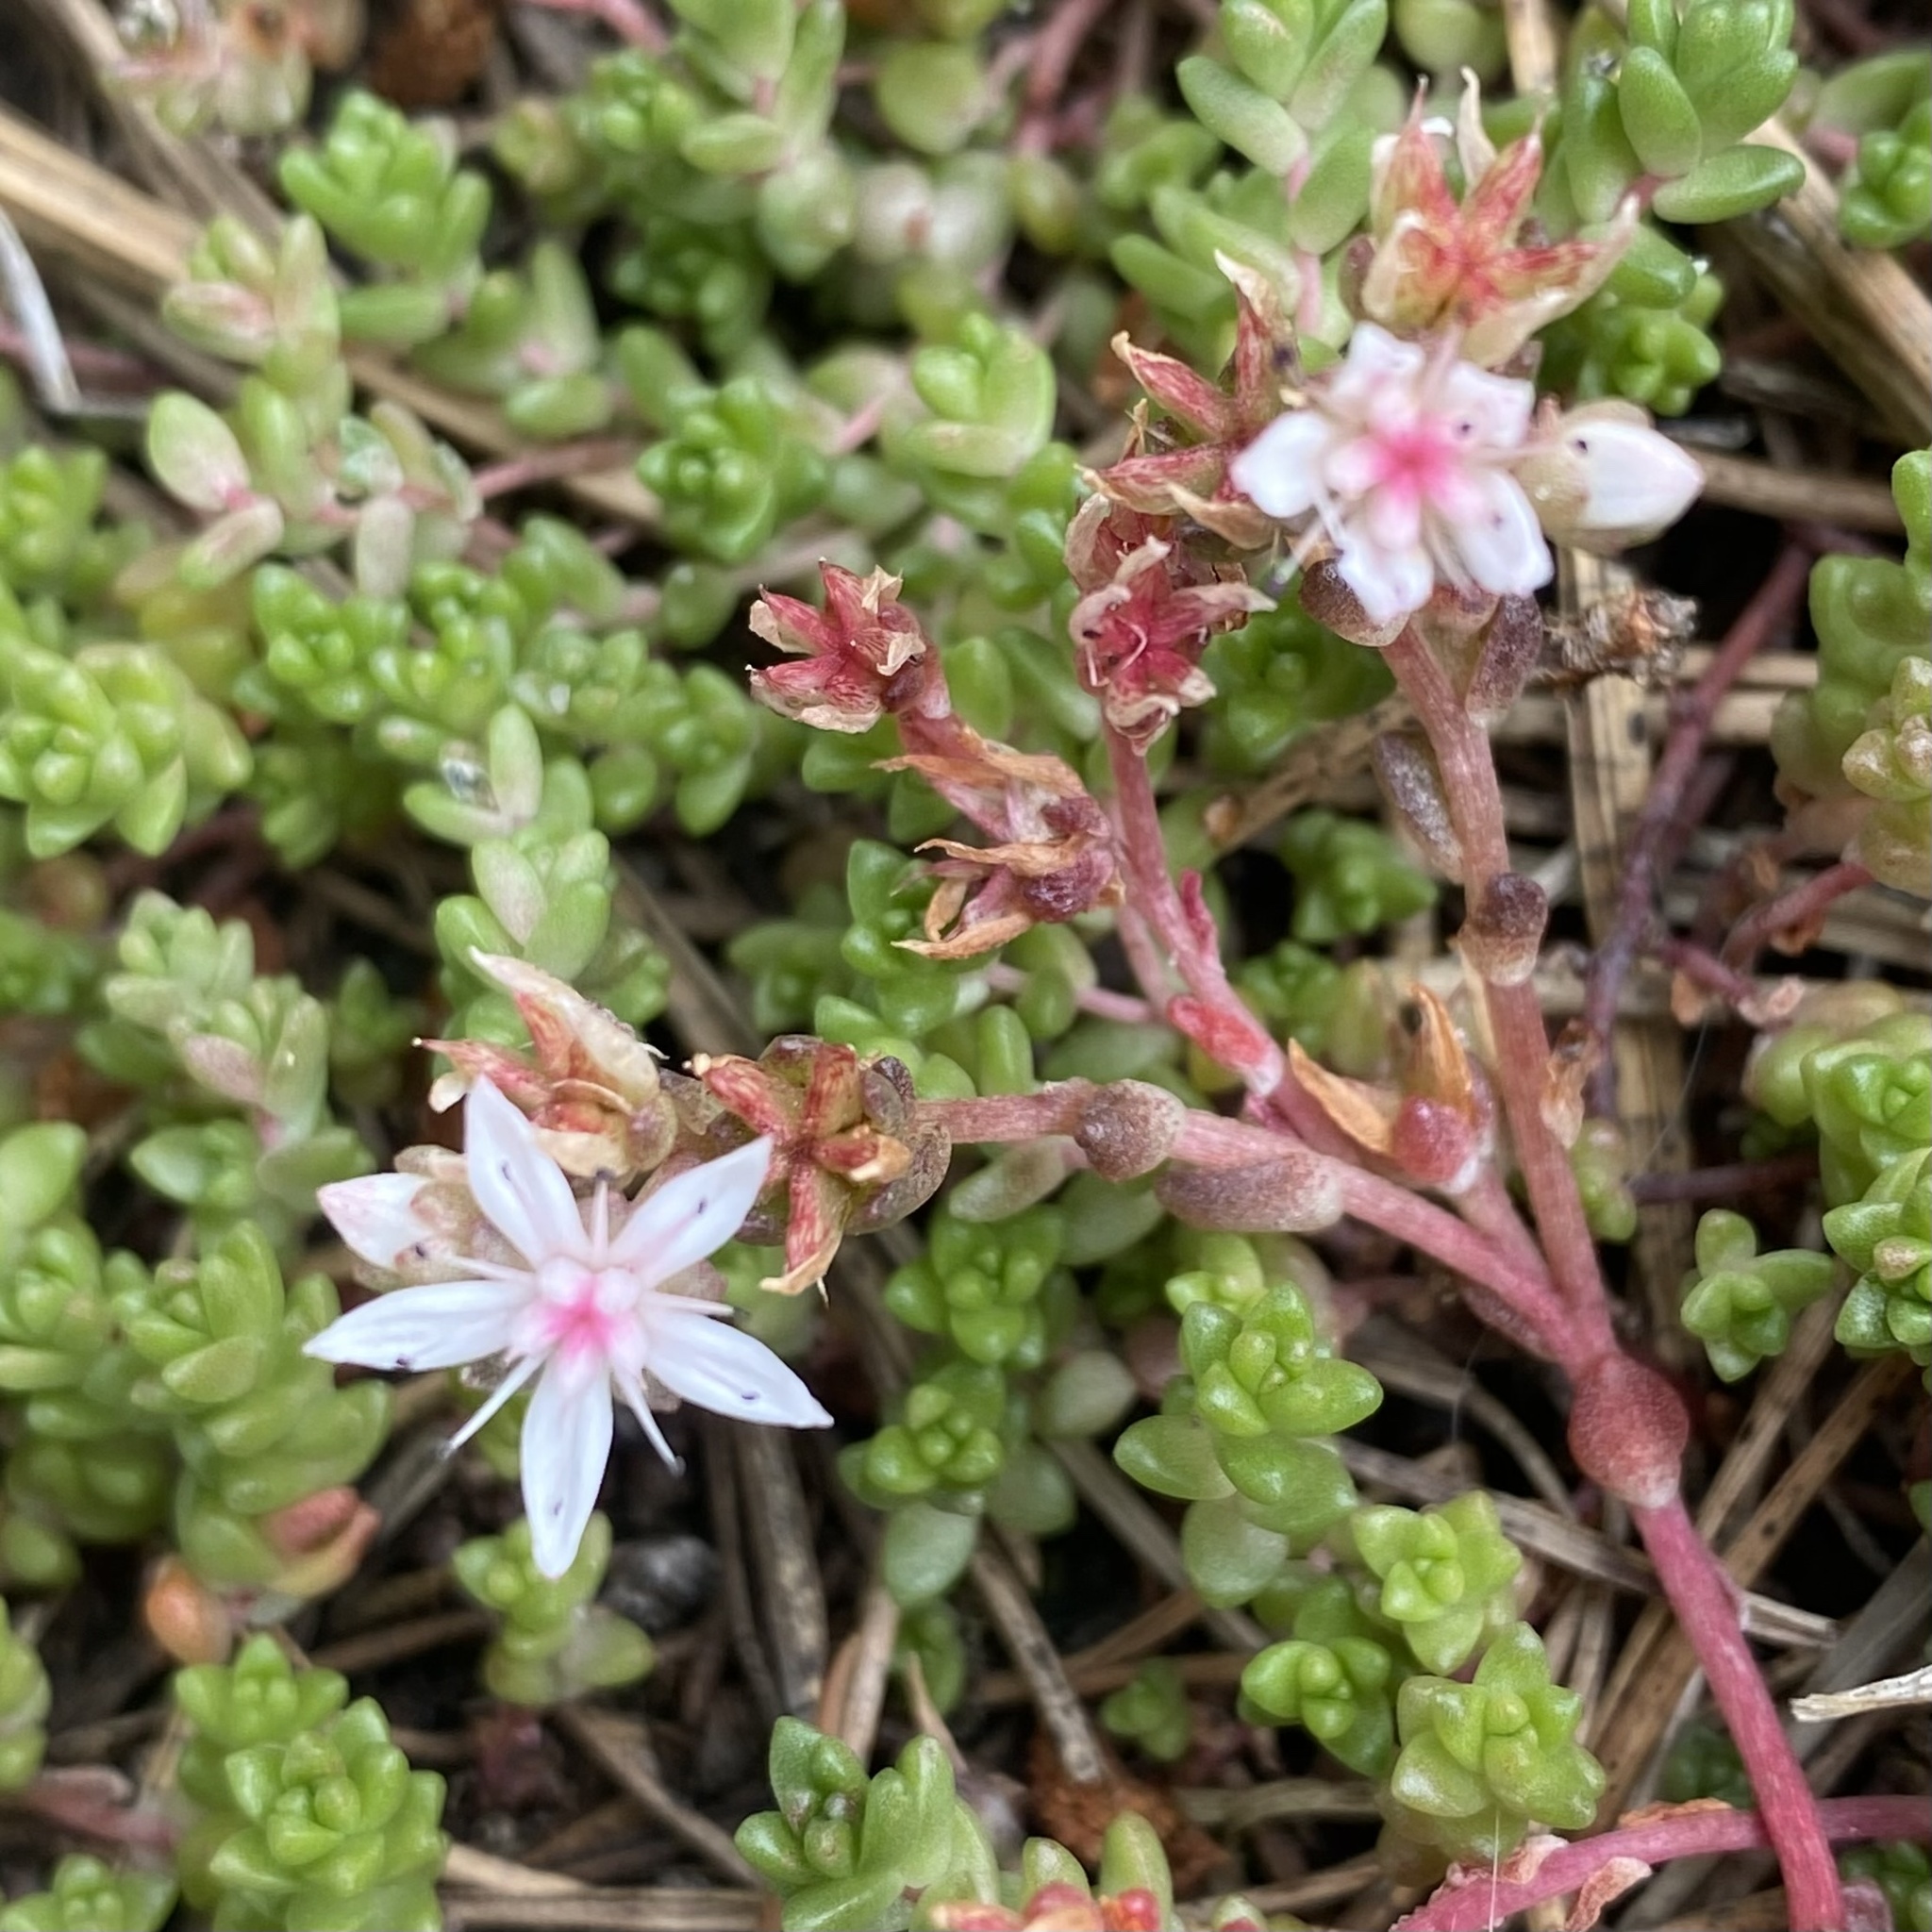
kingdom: Plantae
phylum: Tracheophyta
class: Magnoliopsida
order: Saxifragales
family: Crassulaceae
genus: Sedum
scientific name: Sedum anglicum
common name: English stonecrop
